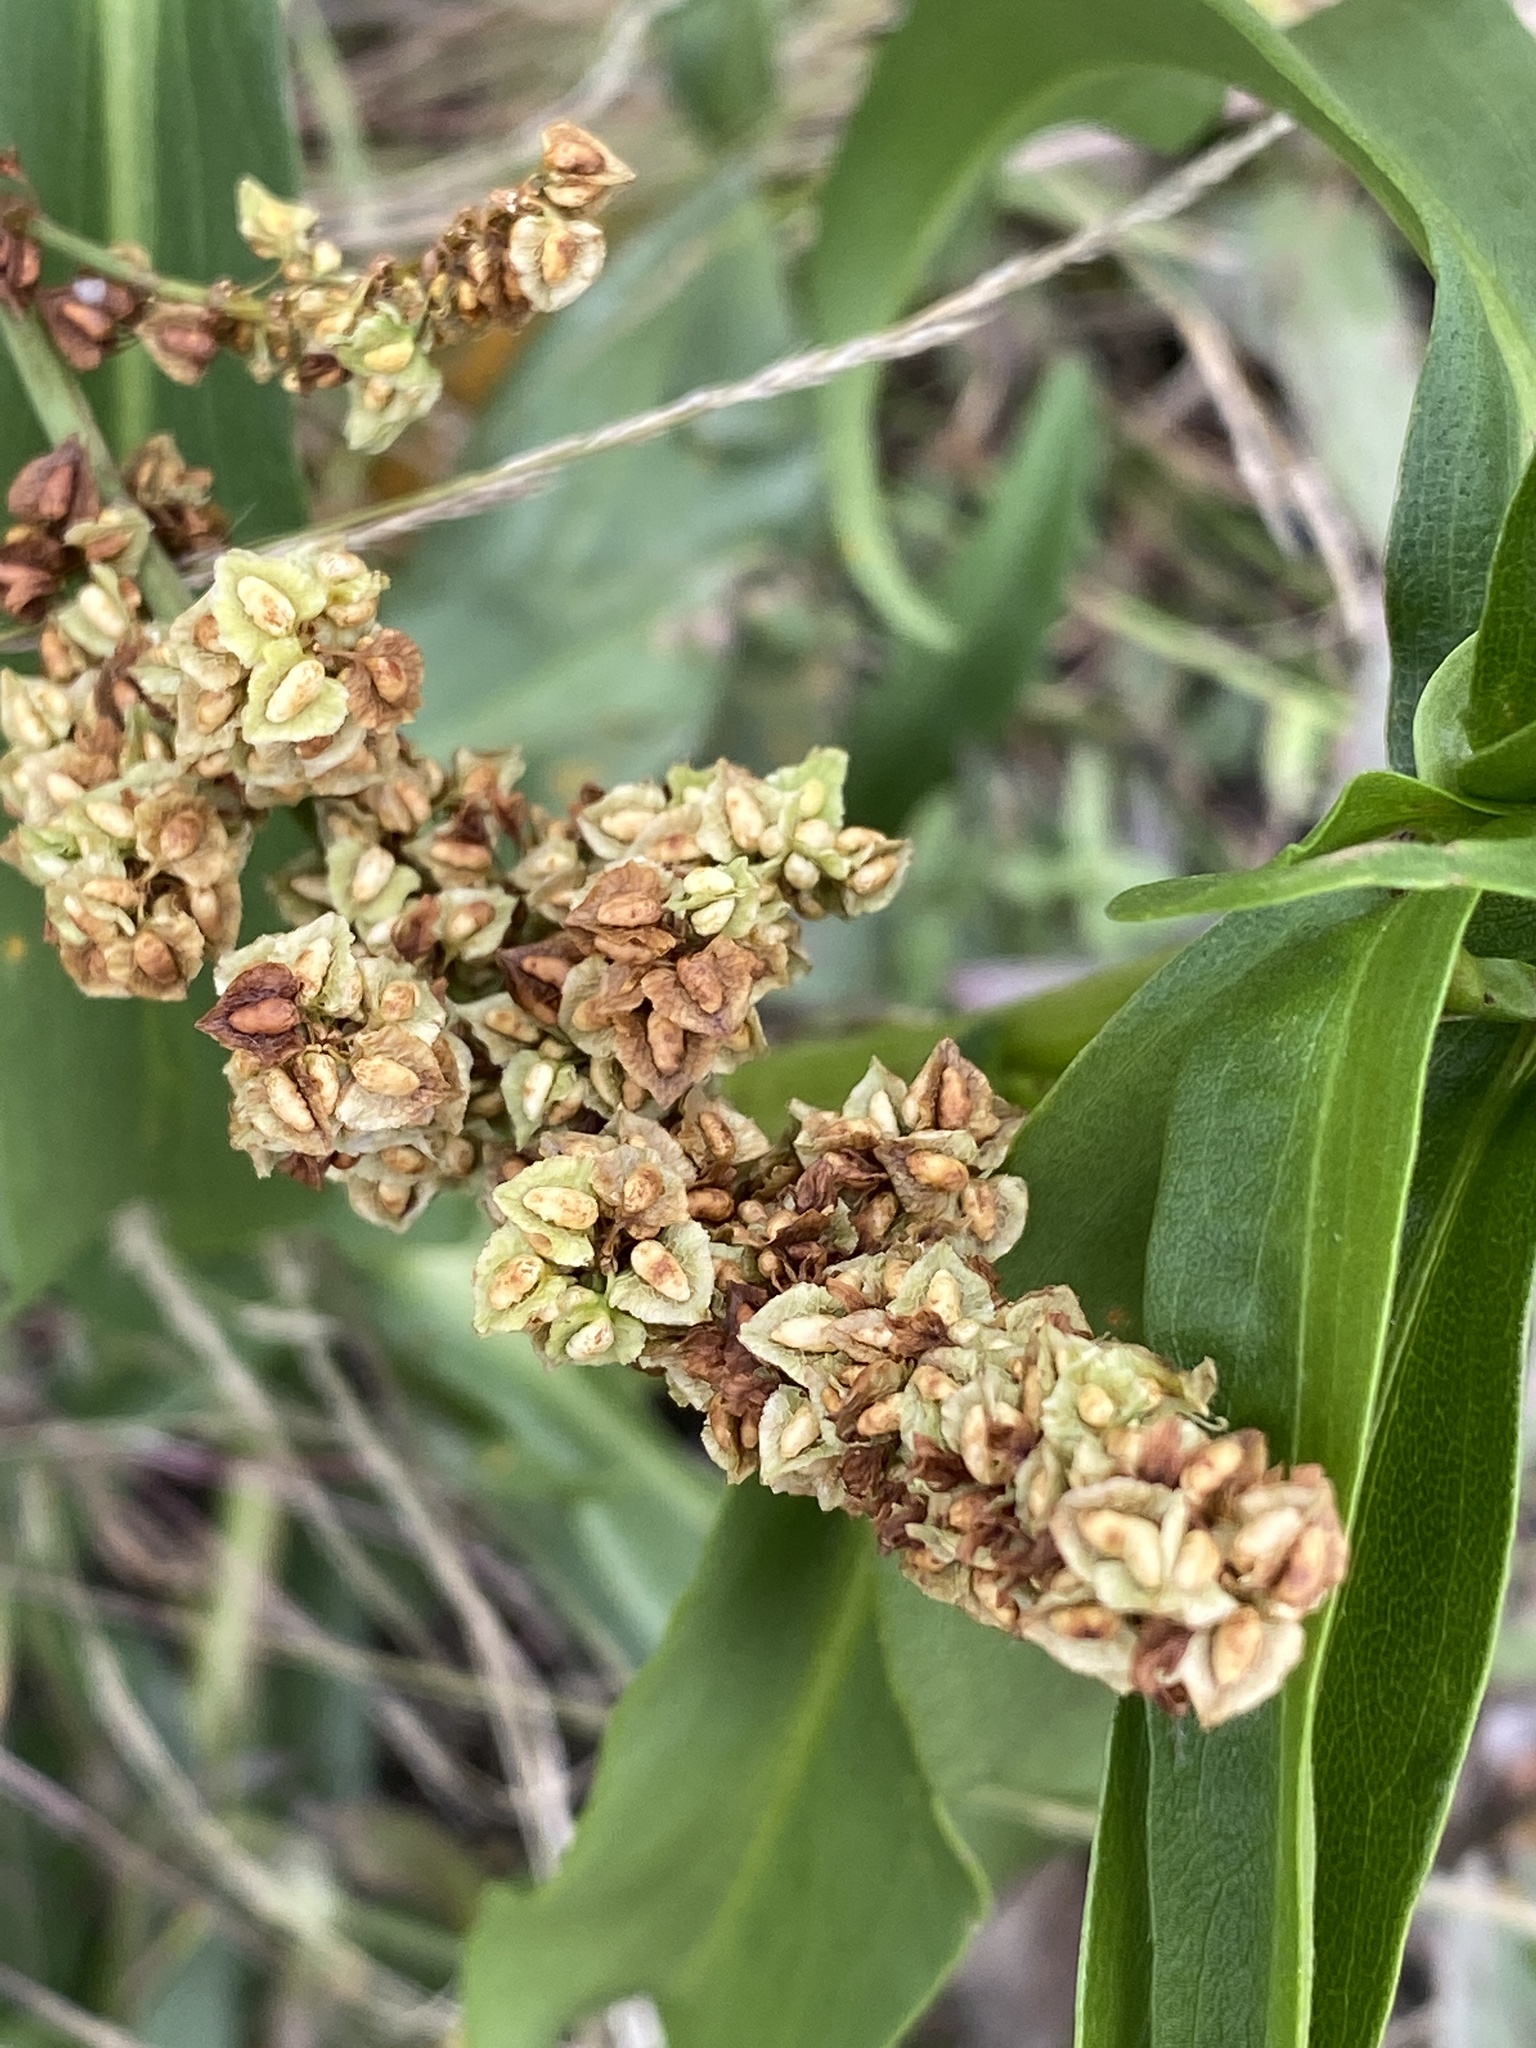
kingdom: Plantae
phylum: Tracheophyta
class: Magnoliopsida
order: Caryophyllales
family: Polygonaceae
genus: Rumex
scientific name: Rumex triangulivalvis
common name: Triangular-valve dock
